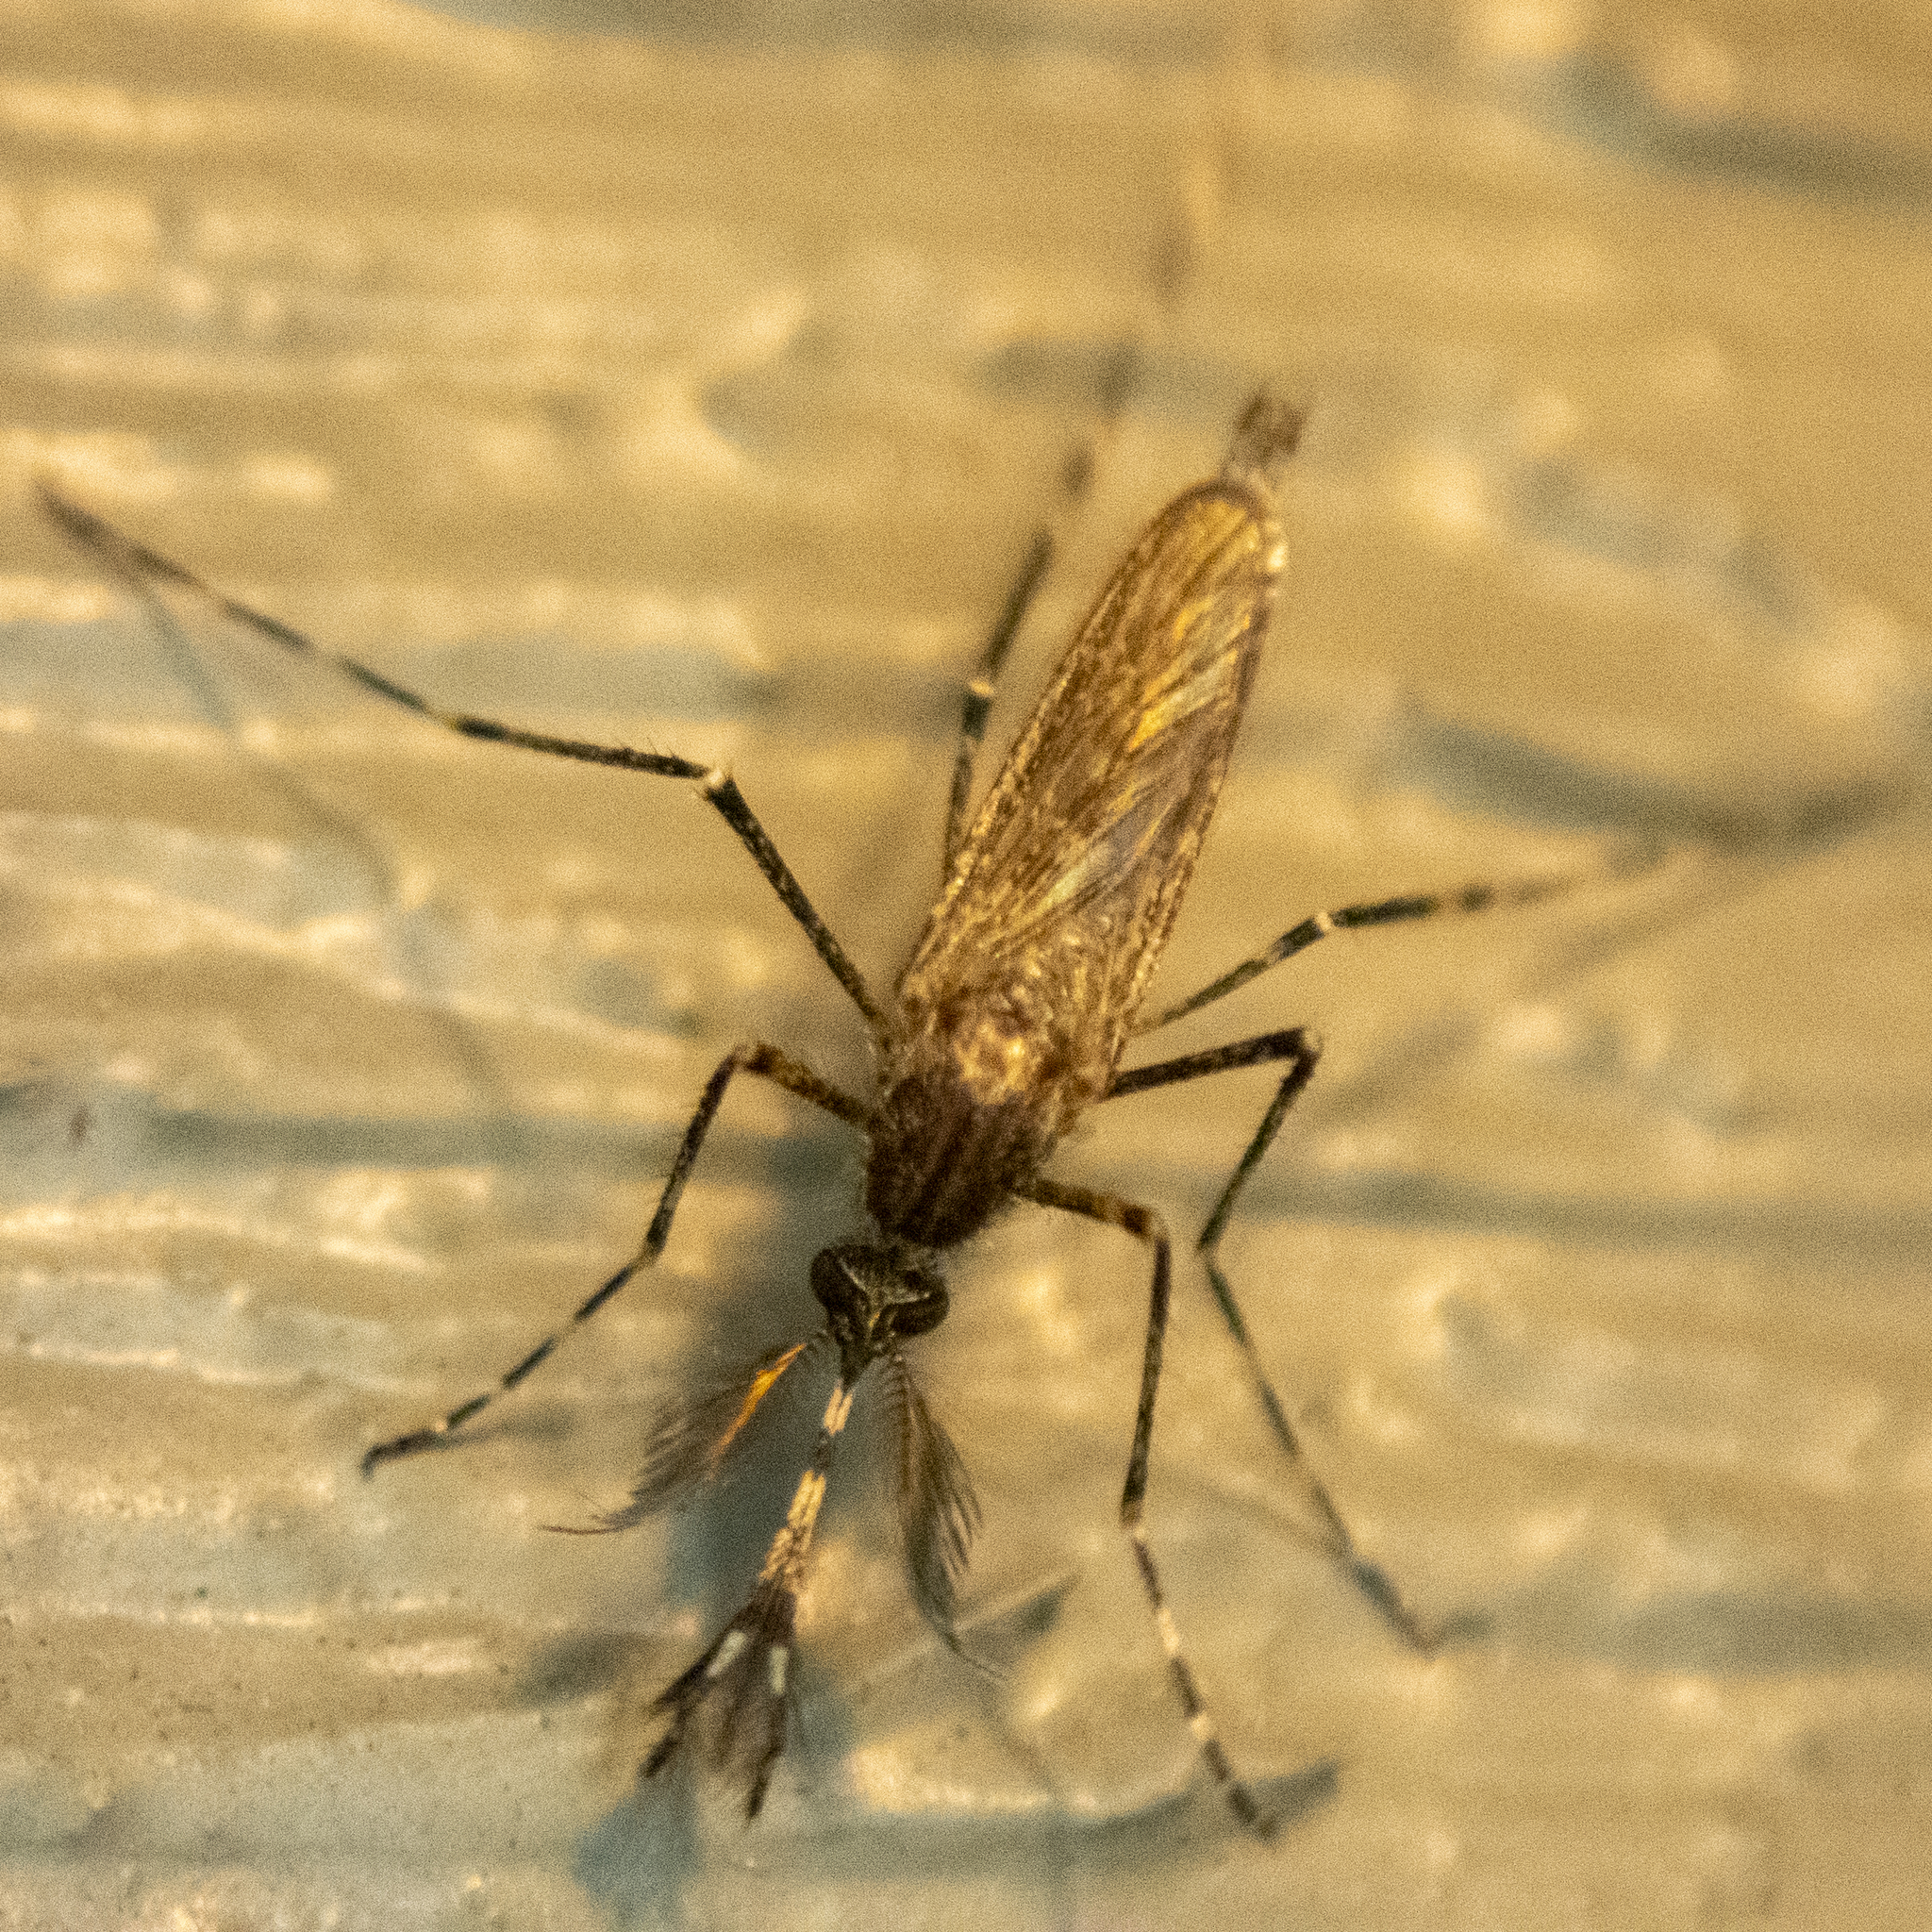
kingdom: Animalia
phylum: Arthropoda
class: Insecta
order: Diptera
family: Culicidae
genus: Coquillettidia
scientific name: Coquillettidia perturbans
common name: Cattail mosquito
